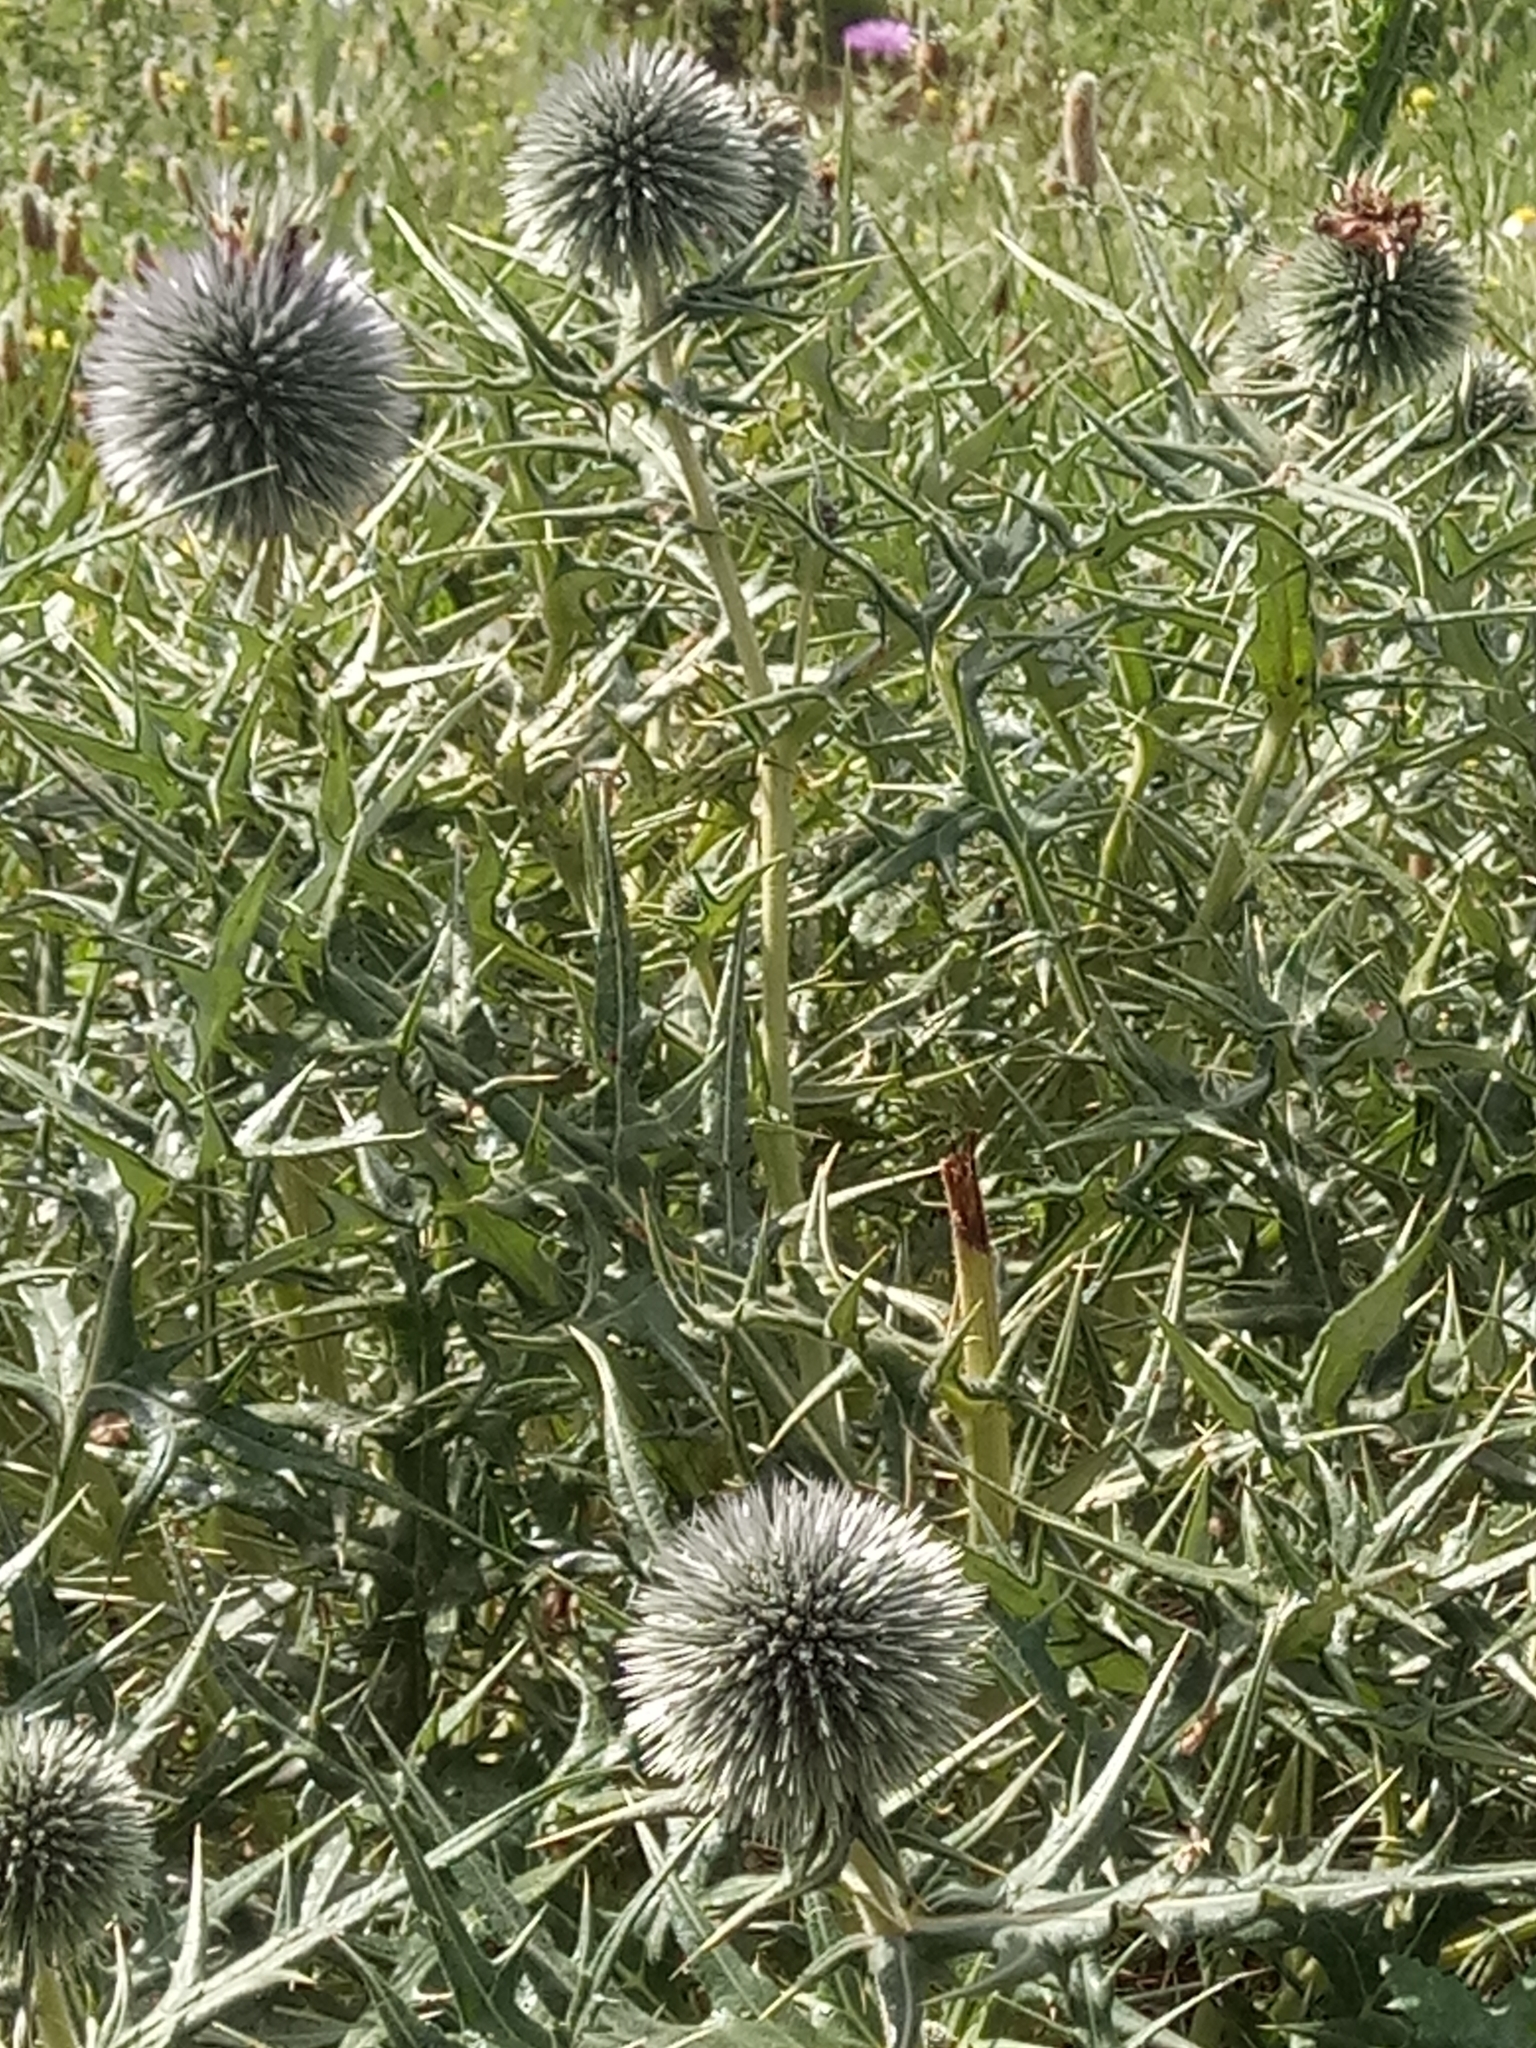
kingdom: Plantae
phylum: Tracheophyta
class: Magnoliopsida
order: Asterales
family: Asteraceae
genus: Echinops
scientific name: Echinops bovei
